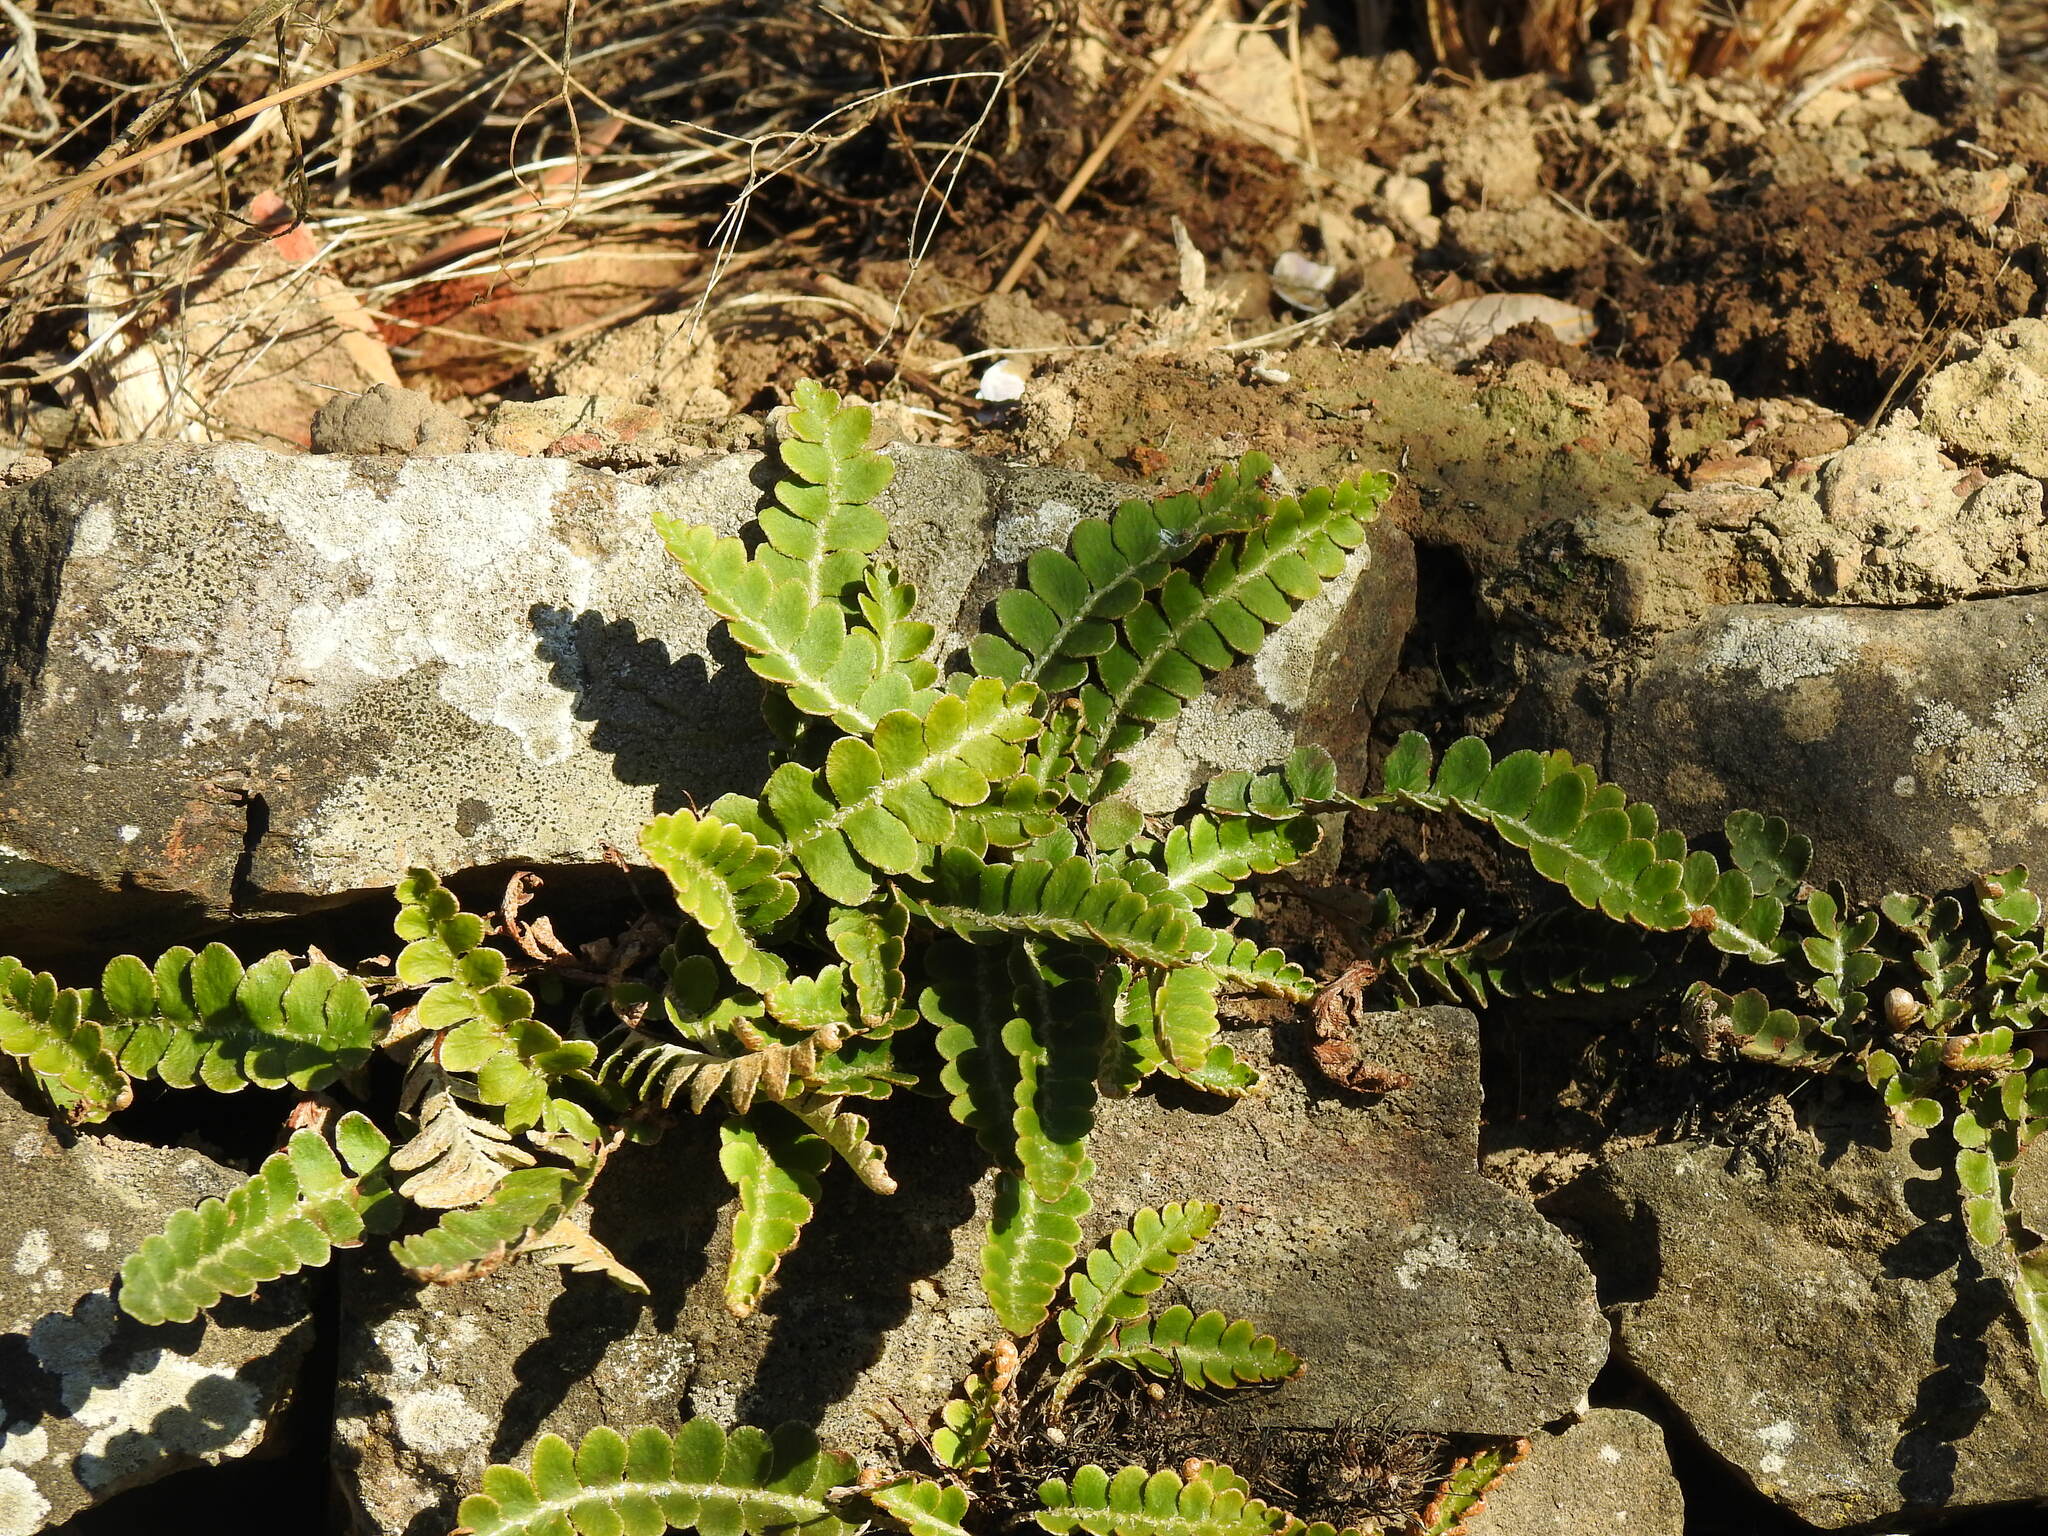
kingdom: Plantae
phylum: Tracheophyta
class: Polypodiopsida
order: Polypodiales
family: Aspleniaceae
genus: Asplenium
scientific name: Asplenium ceterach
